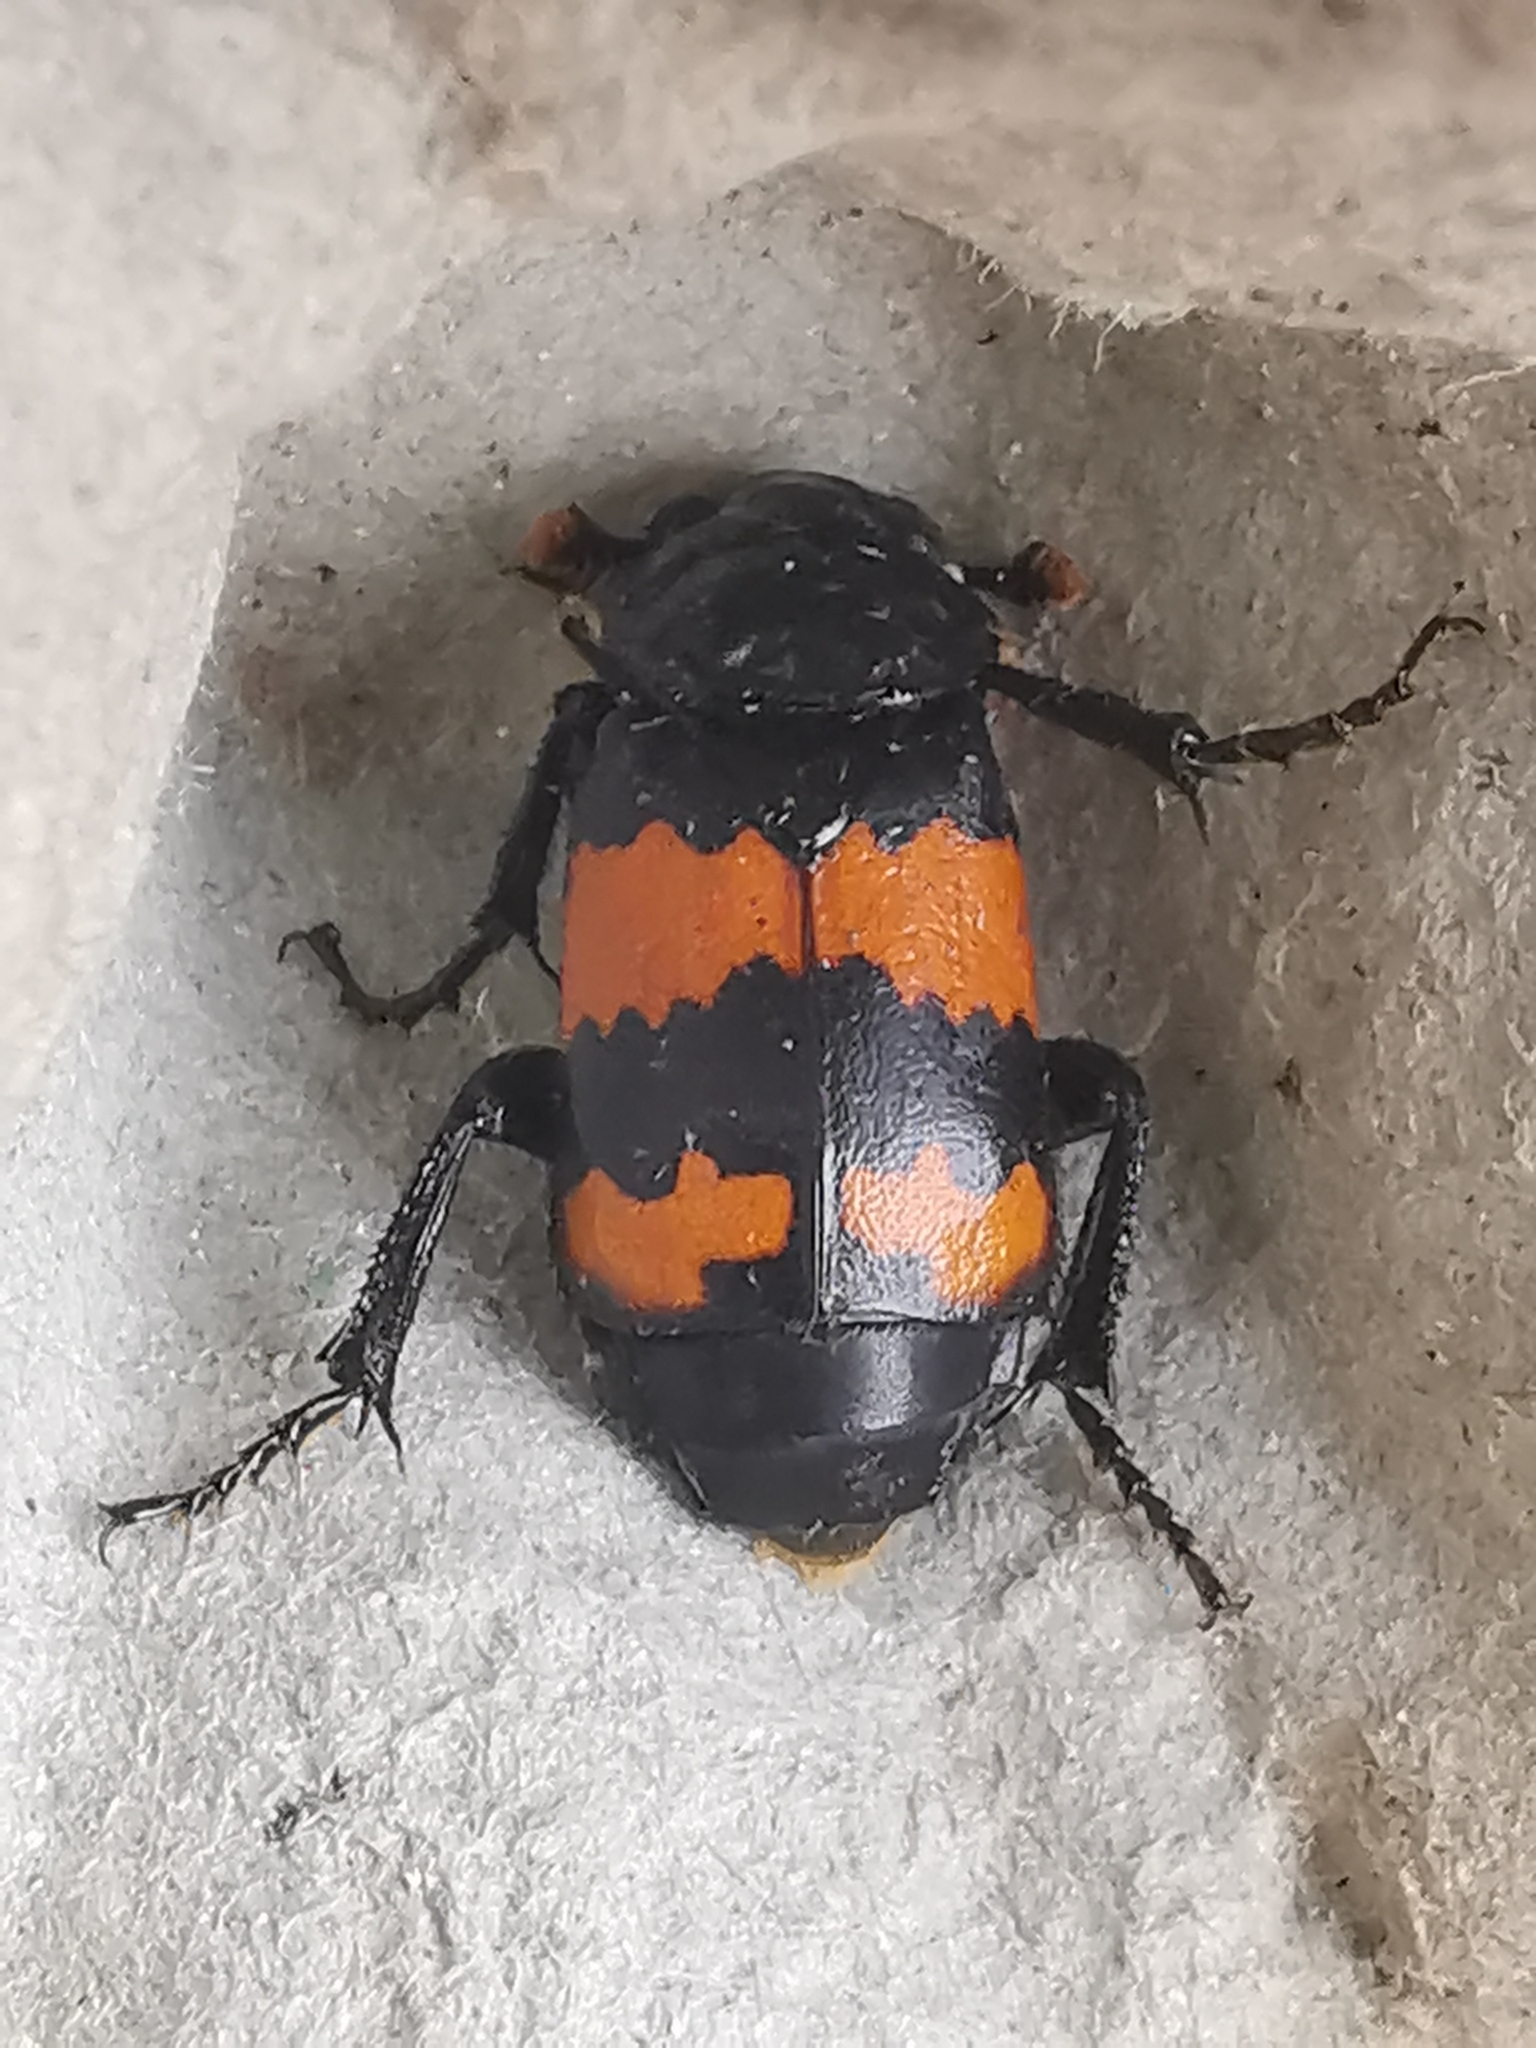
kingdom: Animalia
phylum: Arthropoda
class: Insecta
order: Coleoptera
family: Staphylinidae
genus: Nicrophorus
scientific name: Nicrophorus investigator
